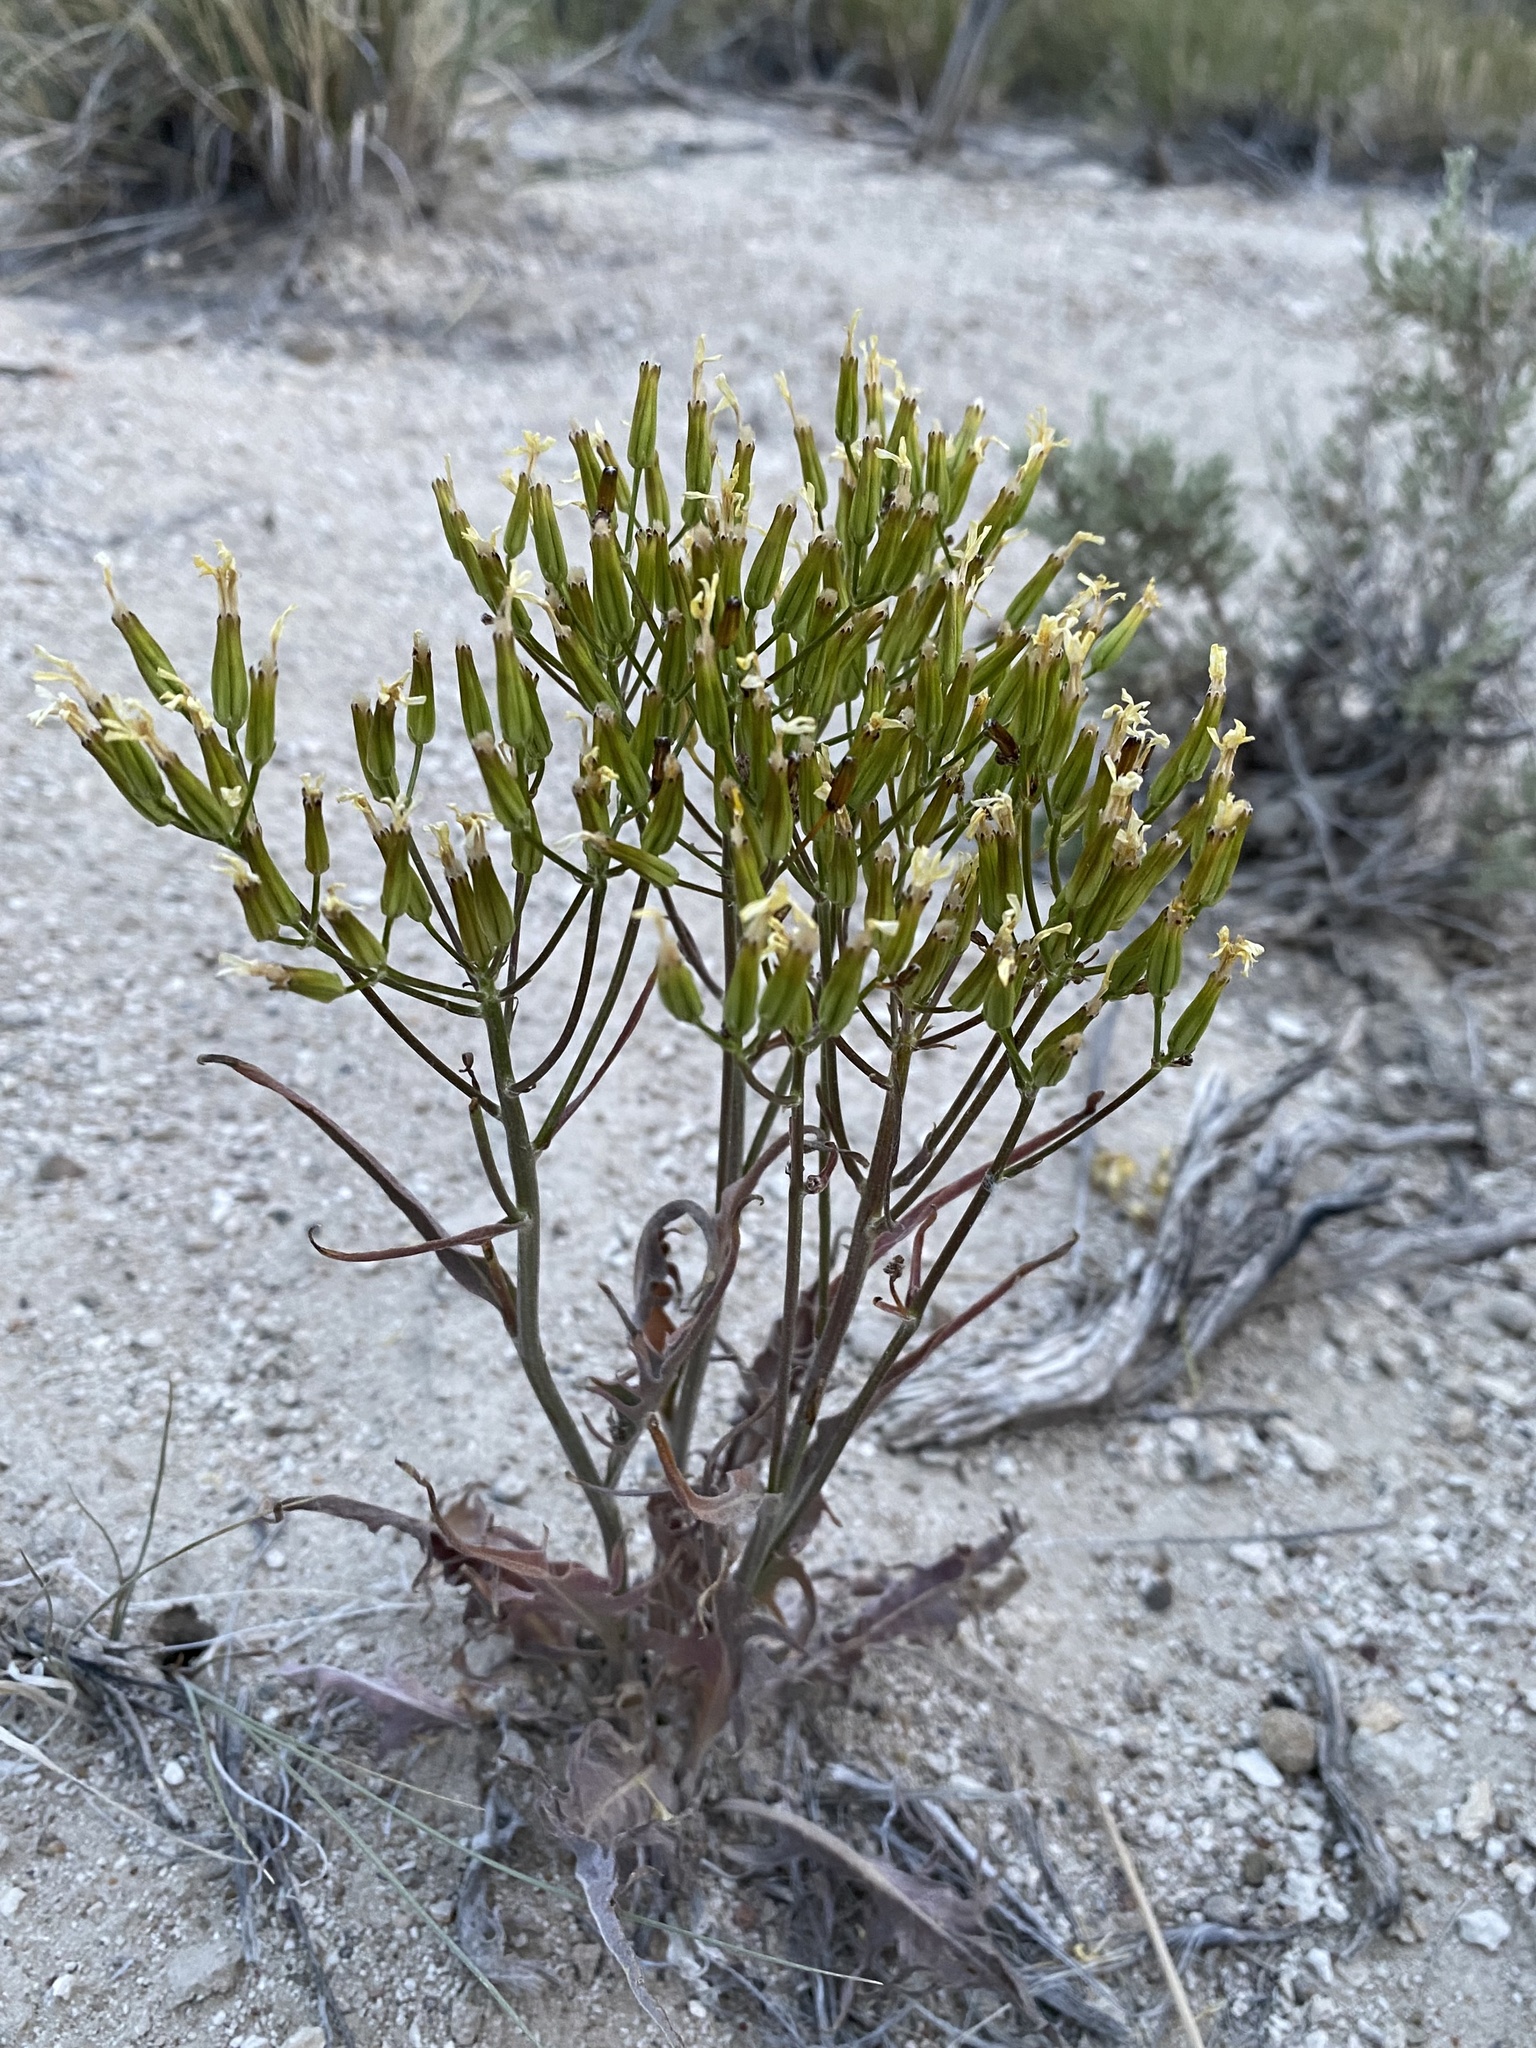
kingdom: Plantae
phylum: Tracheophyta
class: Magnoliopsida
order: Asterales
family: Asteraceae
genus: Crepis
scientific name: Crepis acuminata
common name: Longleaf hawk's-beard
